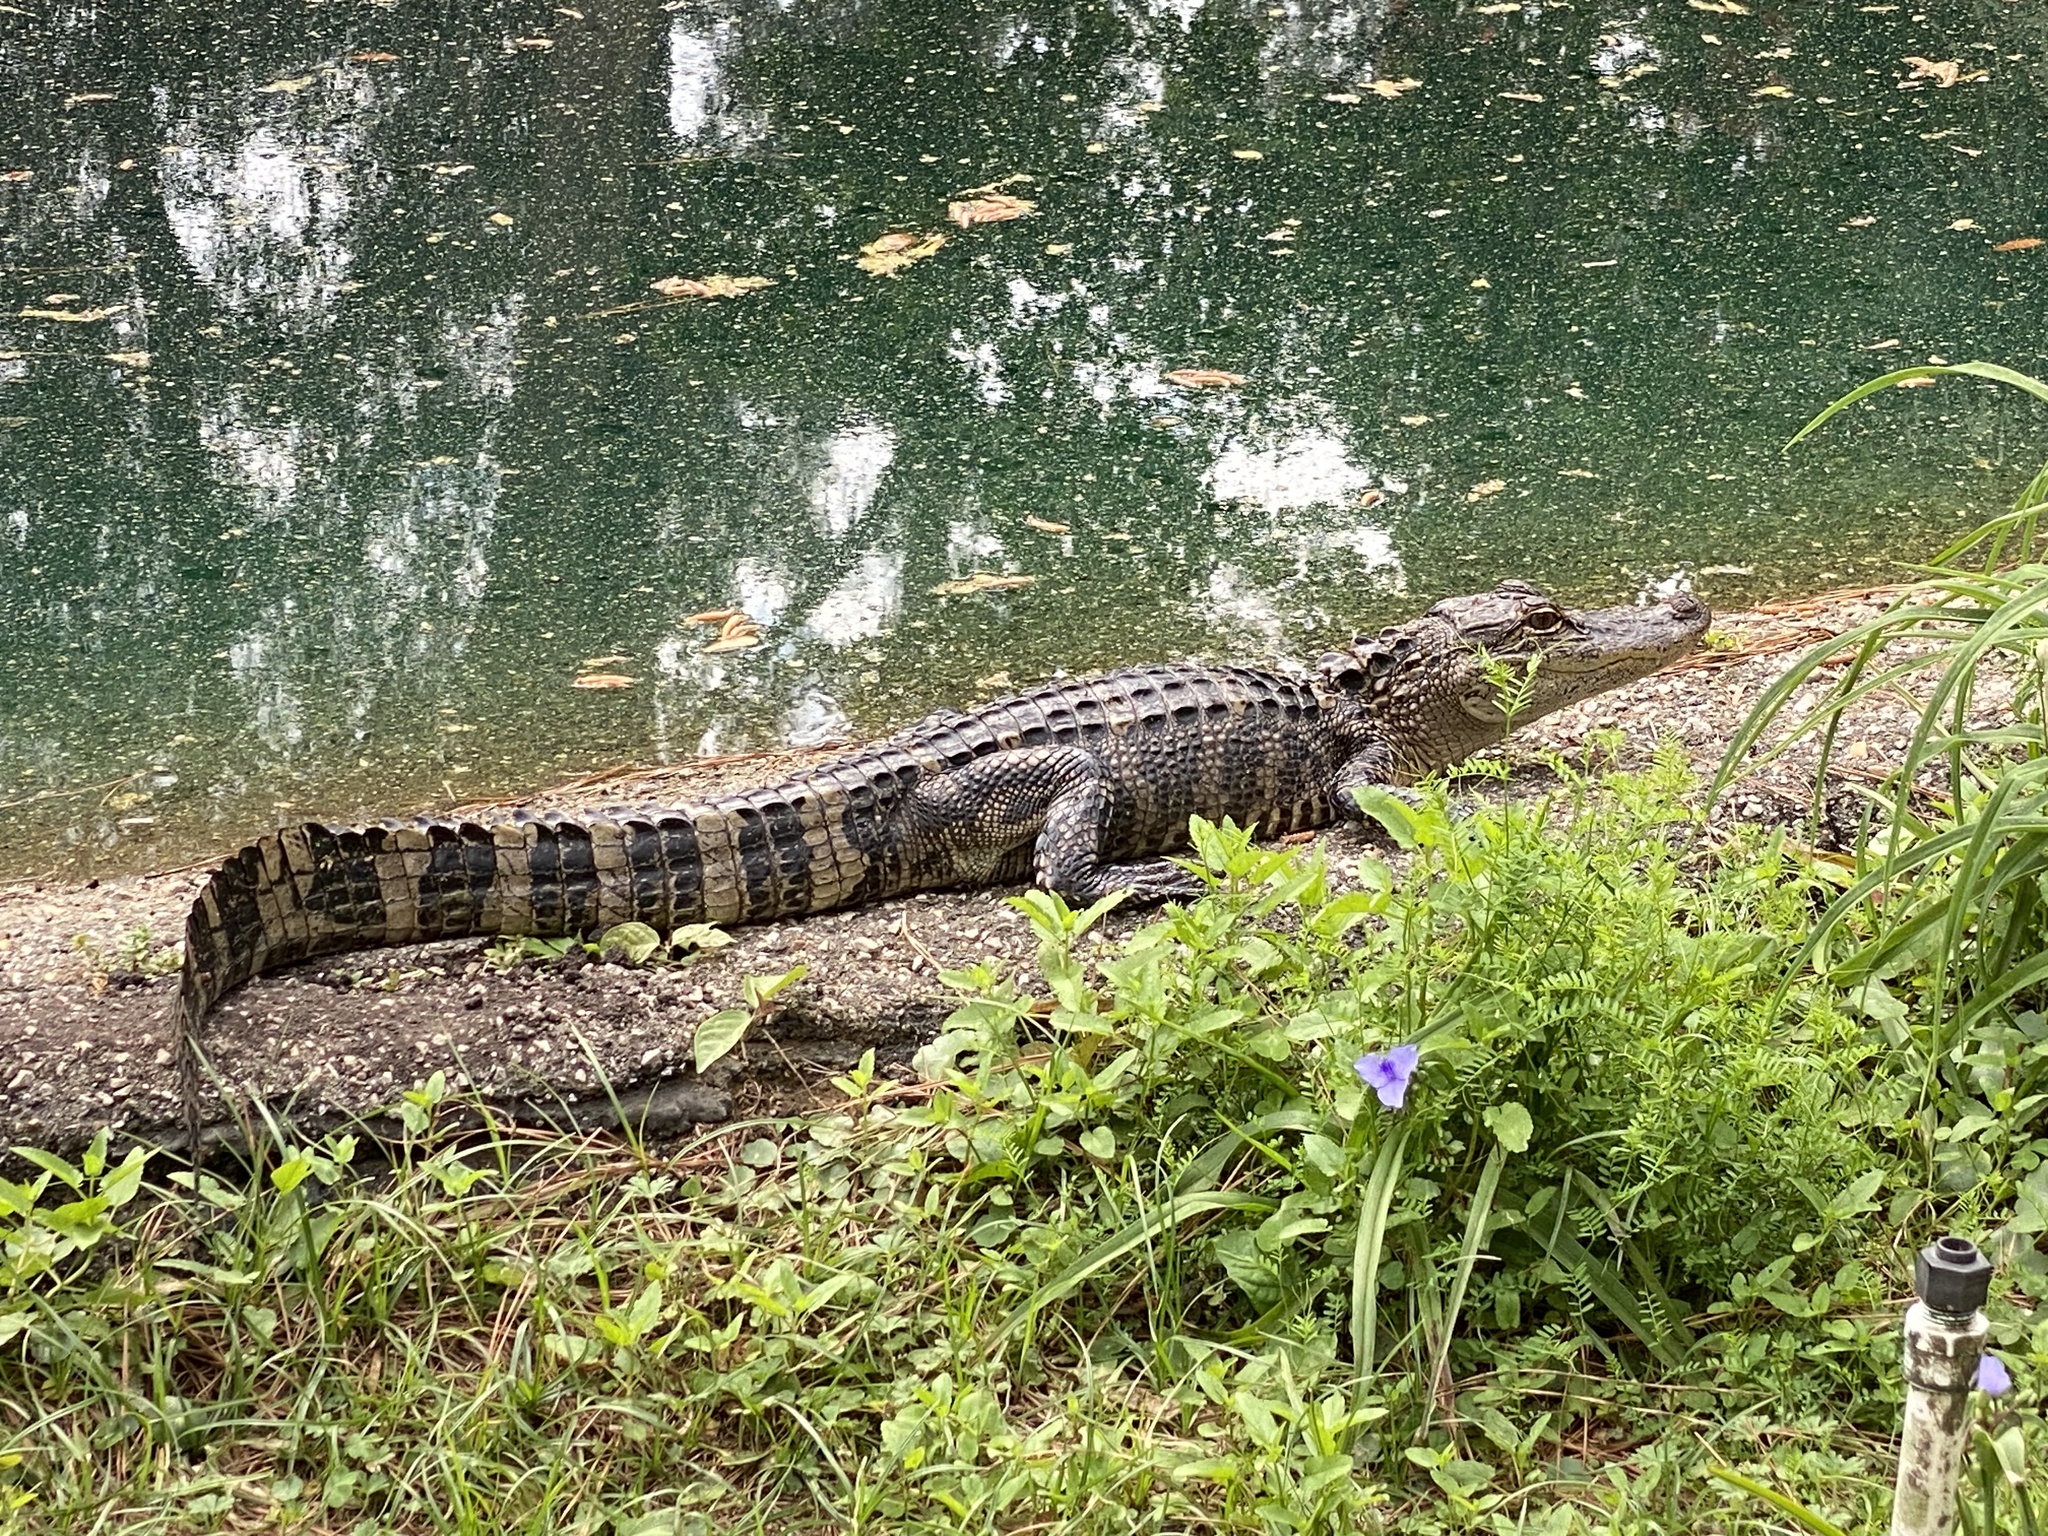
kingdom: Animalia
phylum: Chordata
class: Crocodylia
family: Alligatoridae
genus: Alligator
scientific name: Alligator mississippiensis
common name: American alligator
